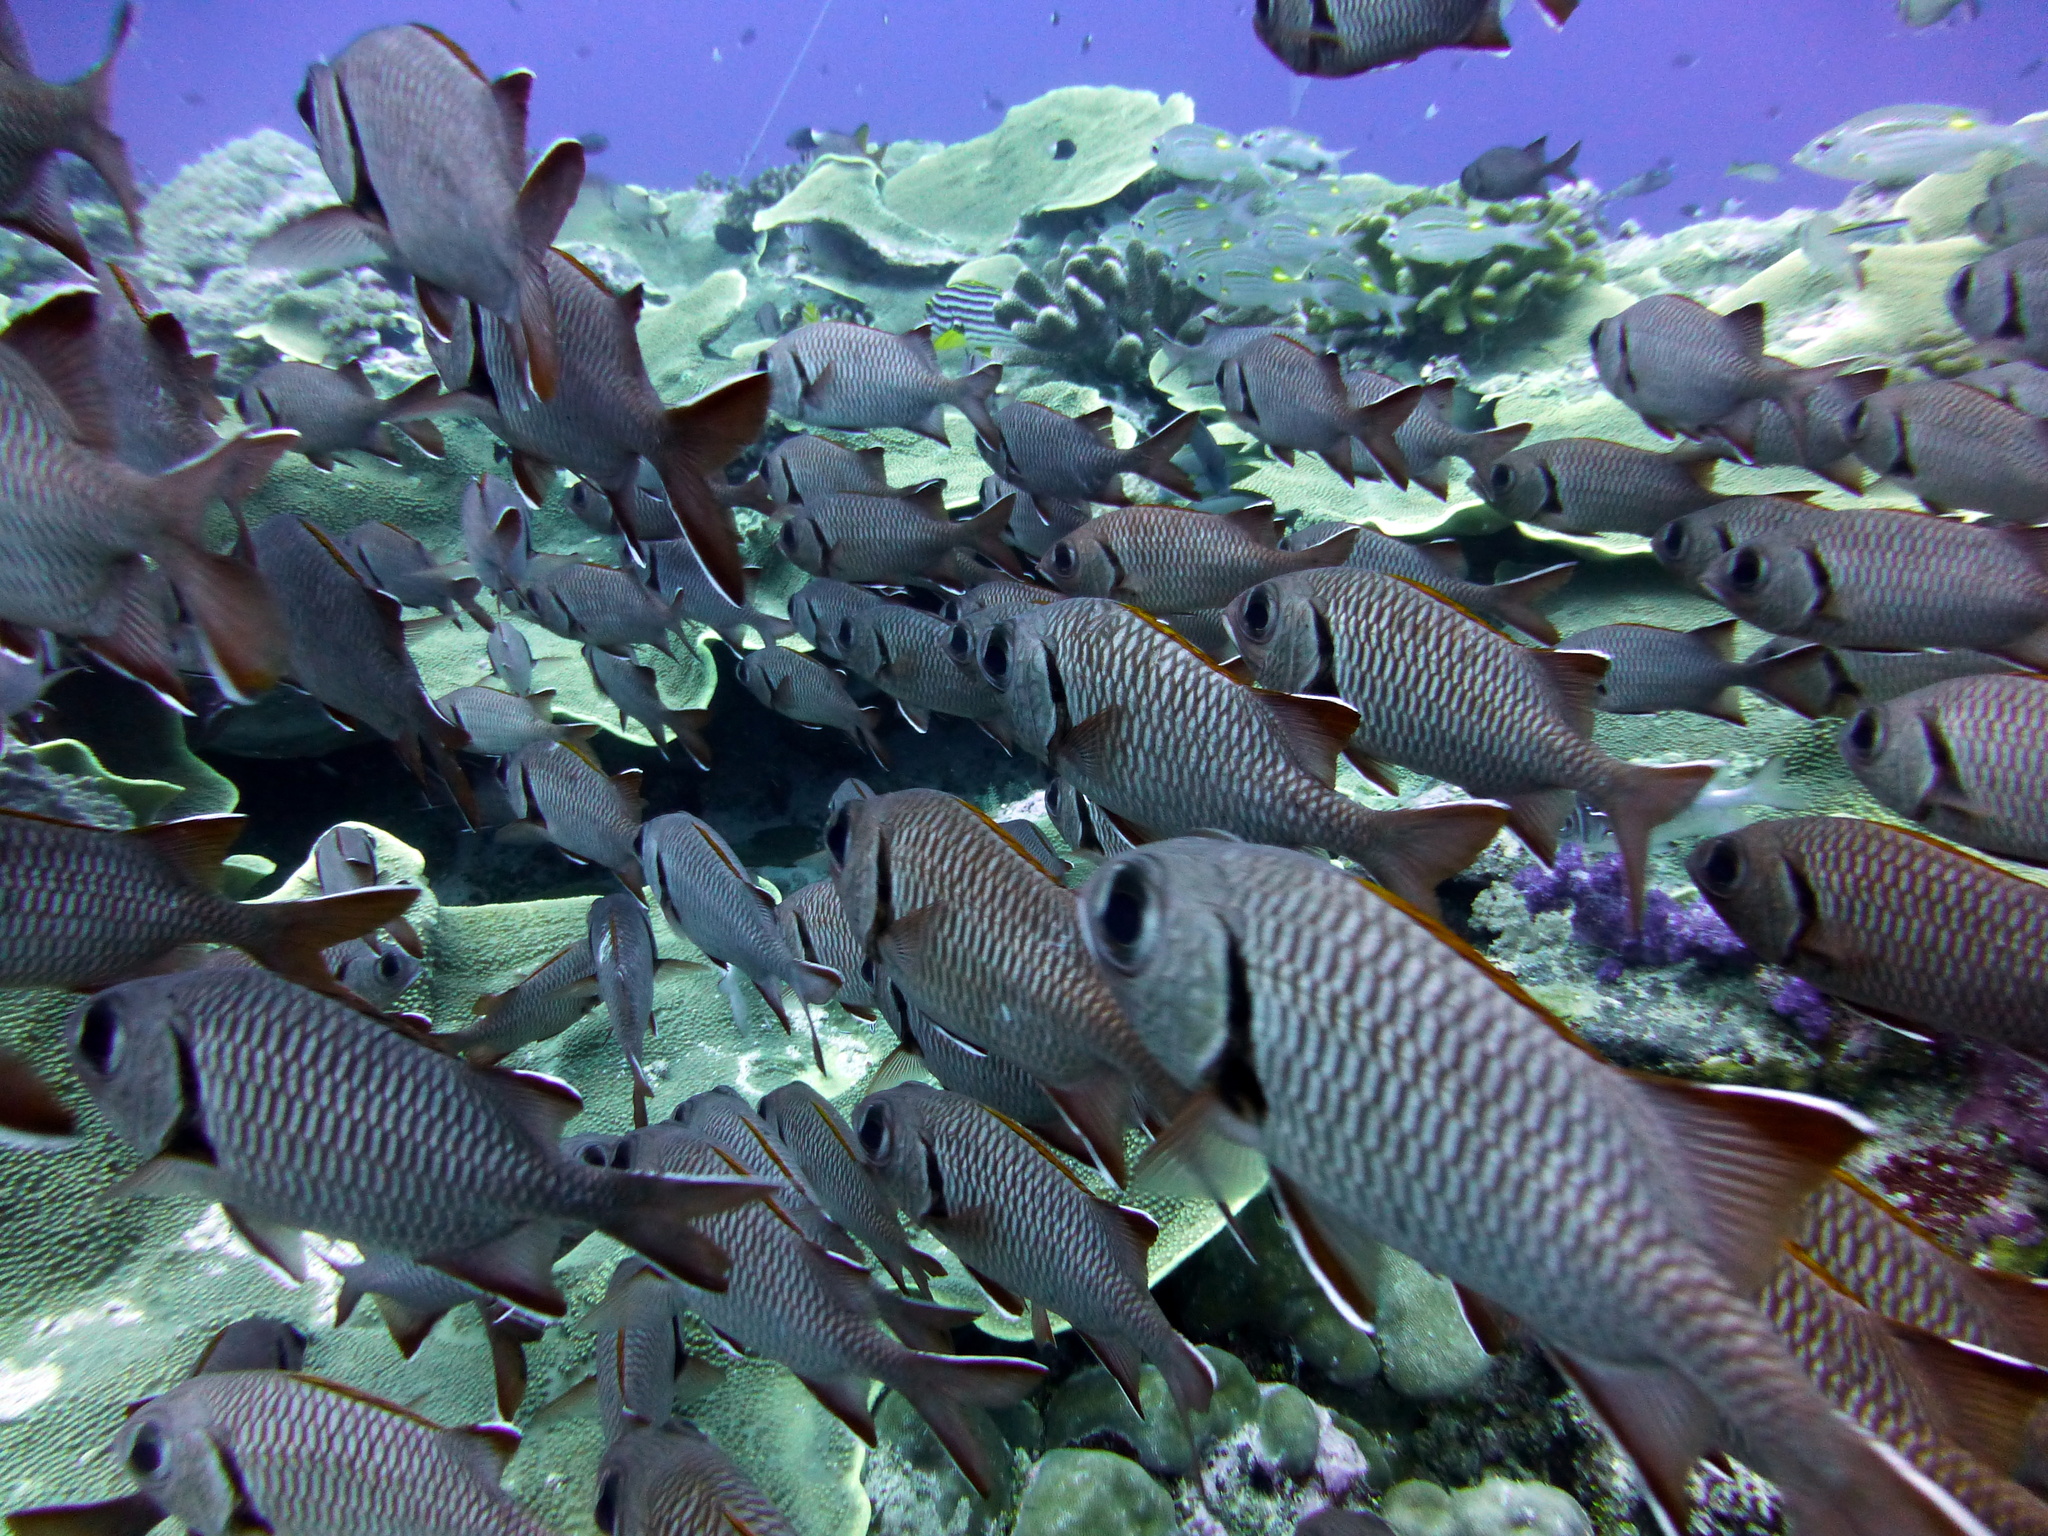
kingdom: Animalia
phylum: Chordata
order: Beryciformes
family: Holocentridae
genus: Myripristis
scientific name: Myripristis berndti
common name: Bigscale soldierfish
